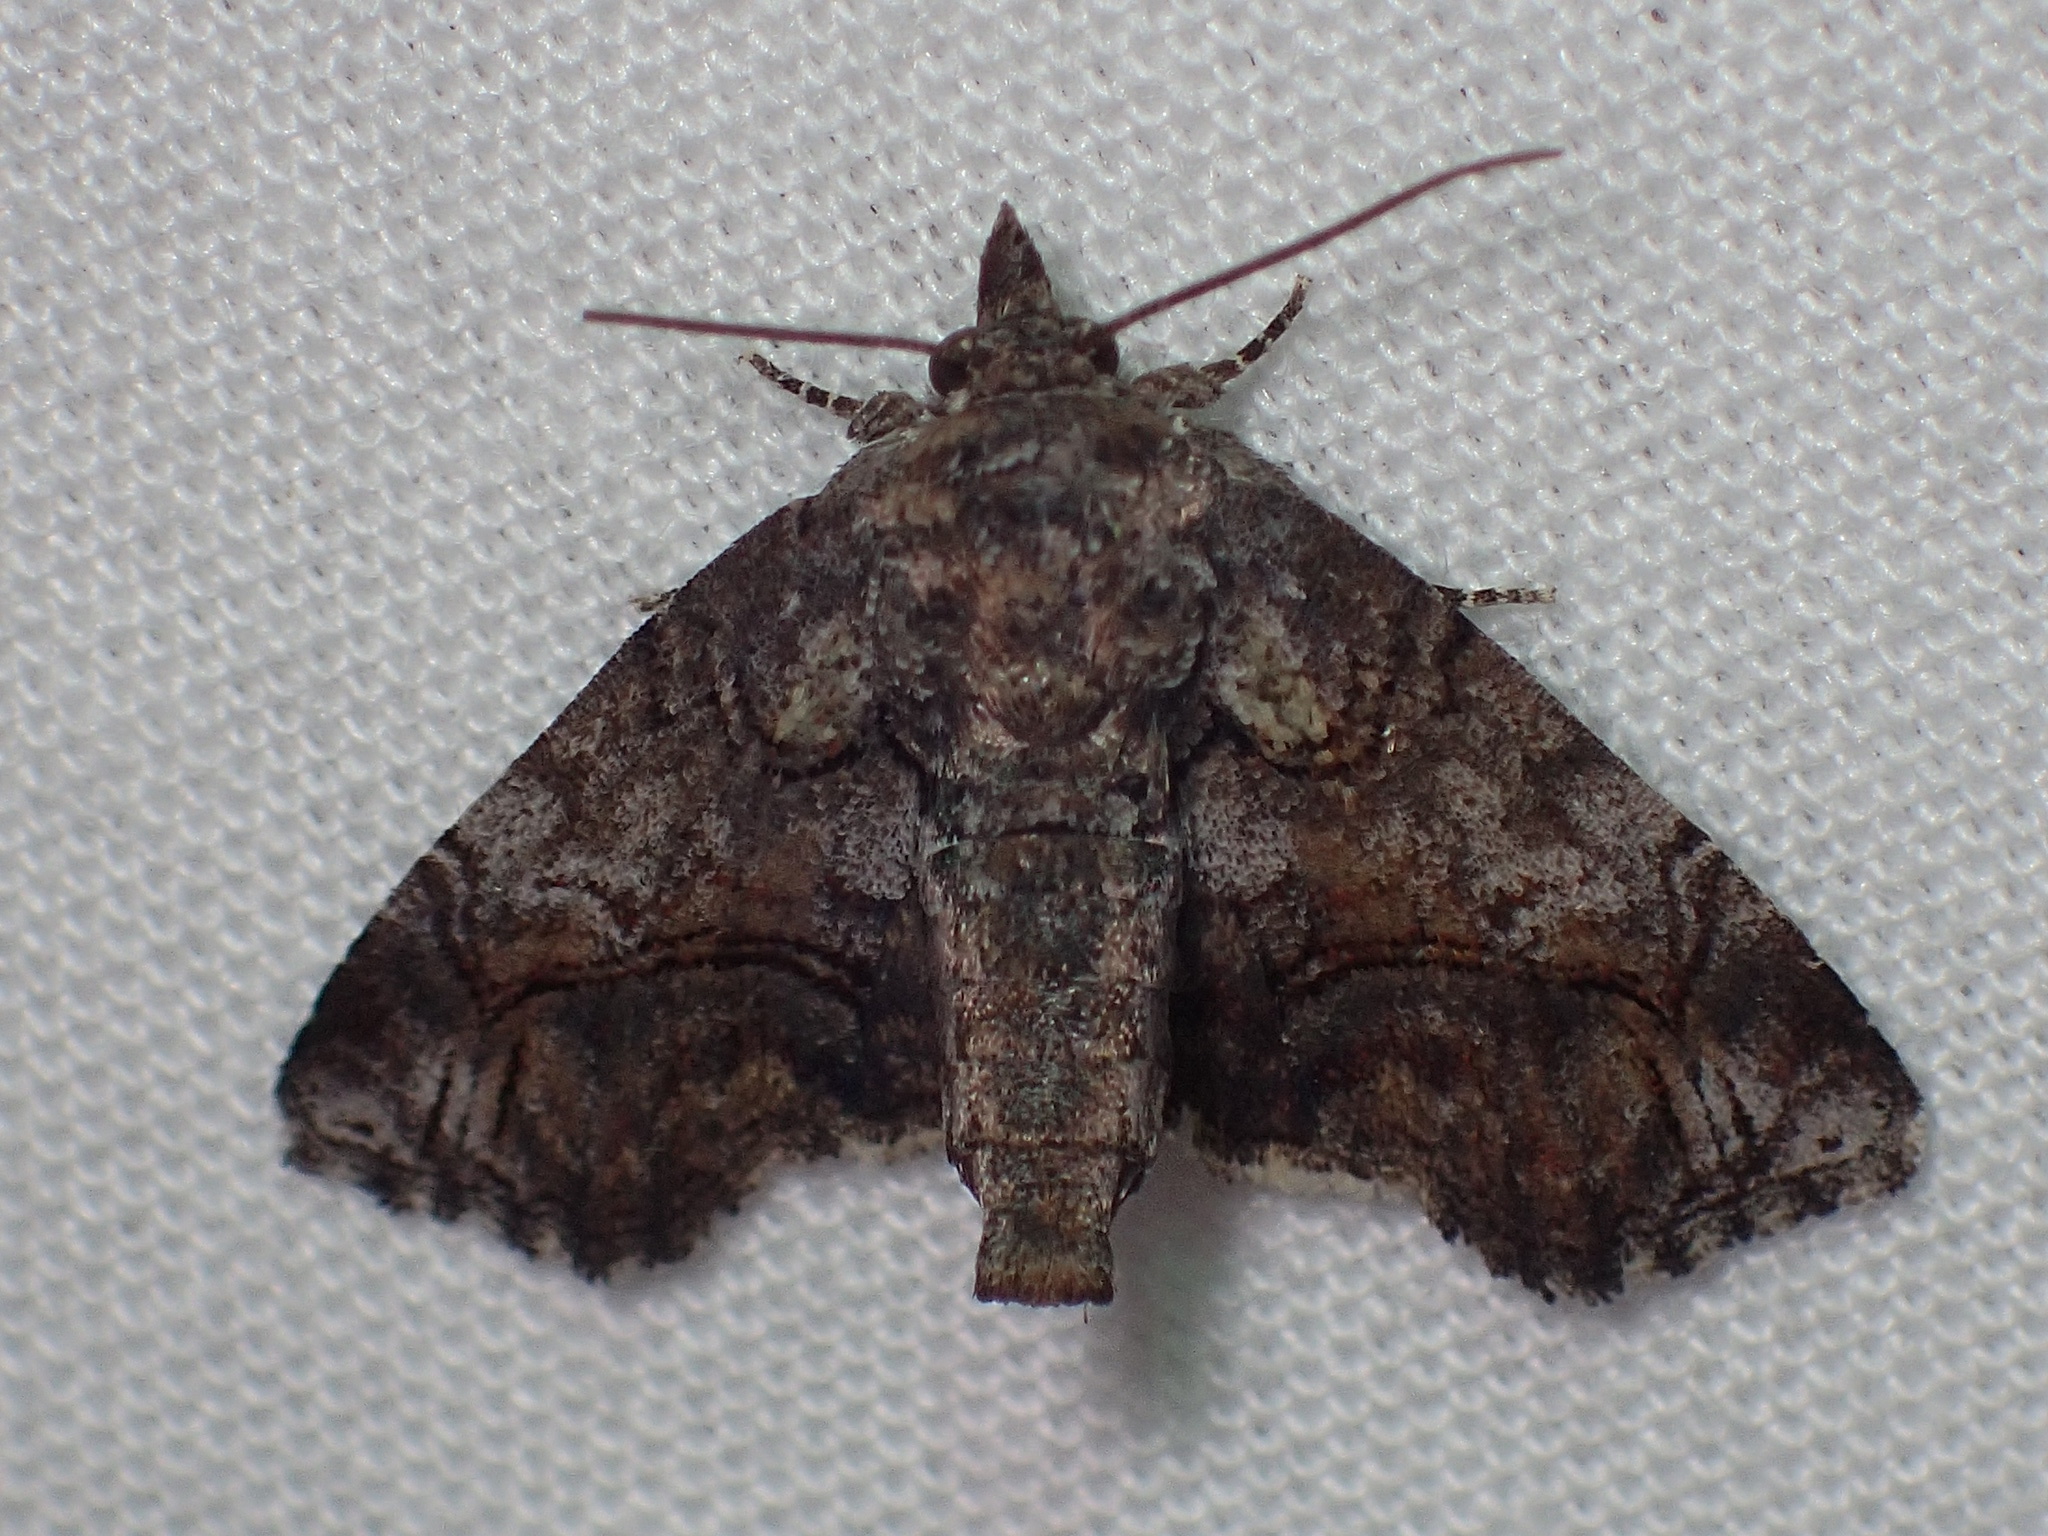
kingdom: Animalia
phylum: Arthropoda
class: Insecta
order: Lepidoptera
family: Euteliidae
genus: Paectes
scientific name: Paectes pygmaea
